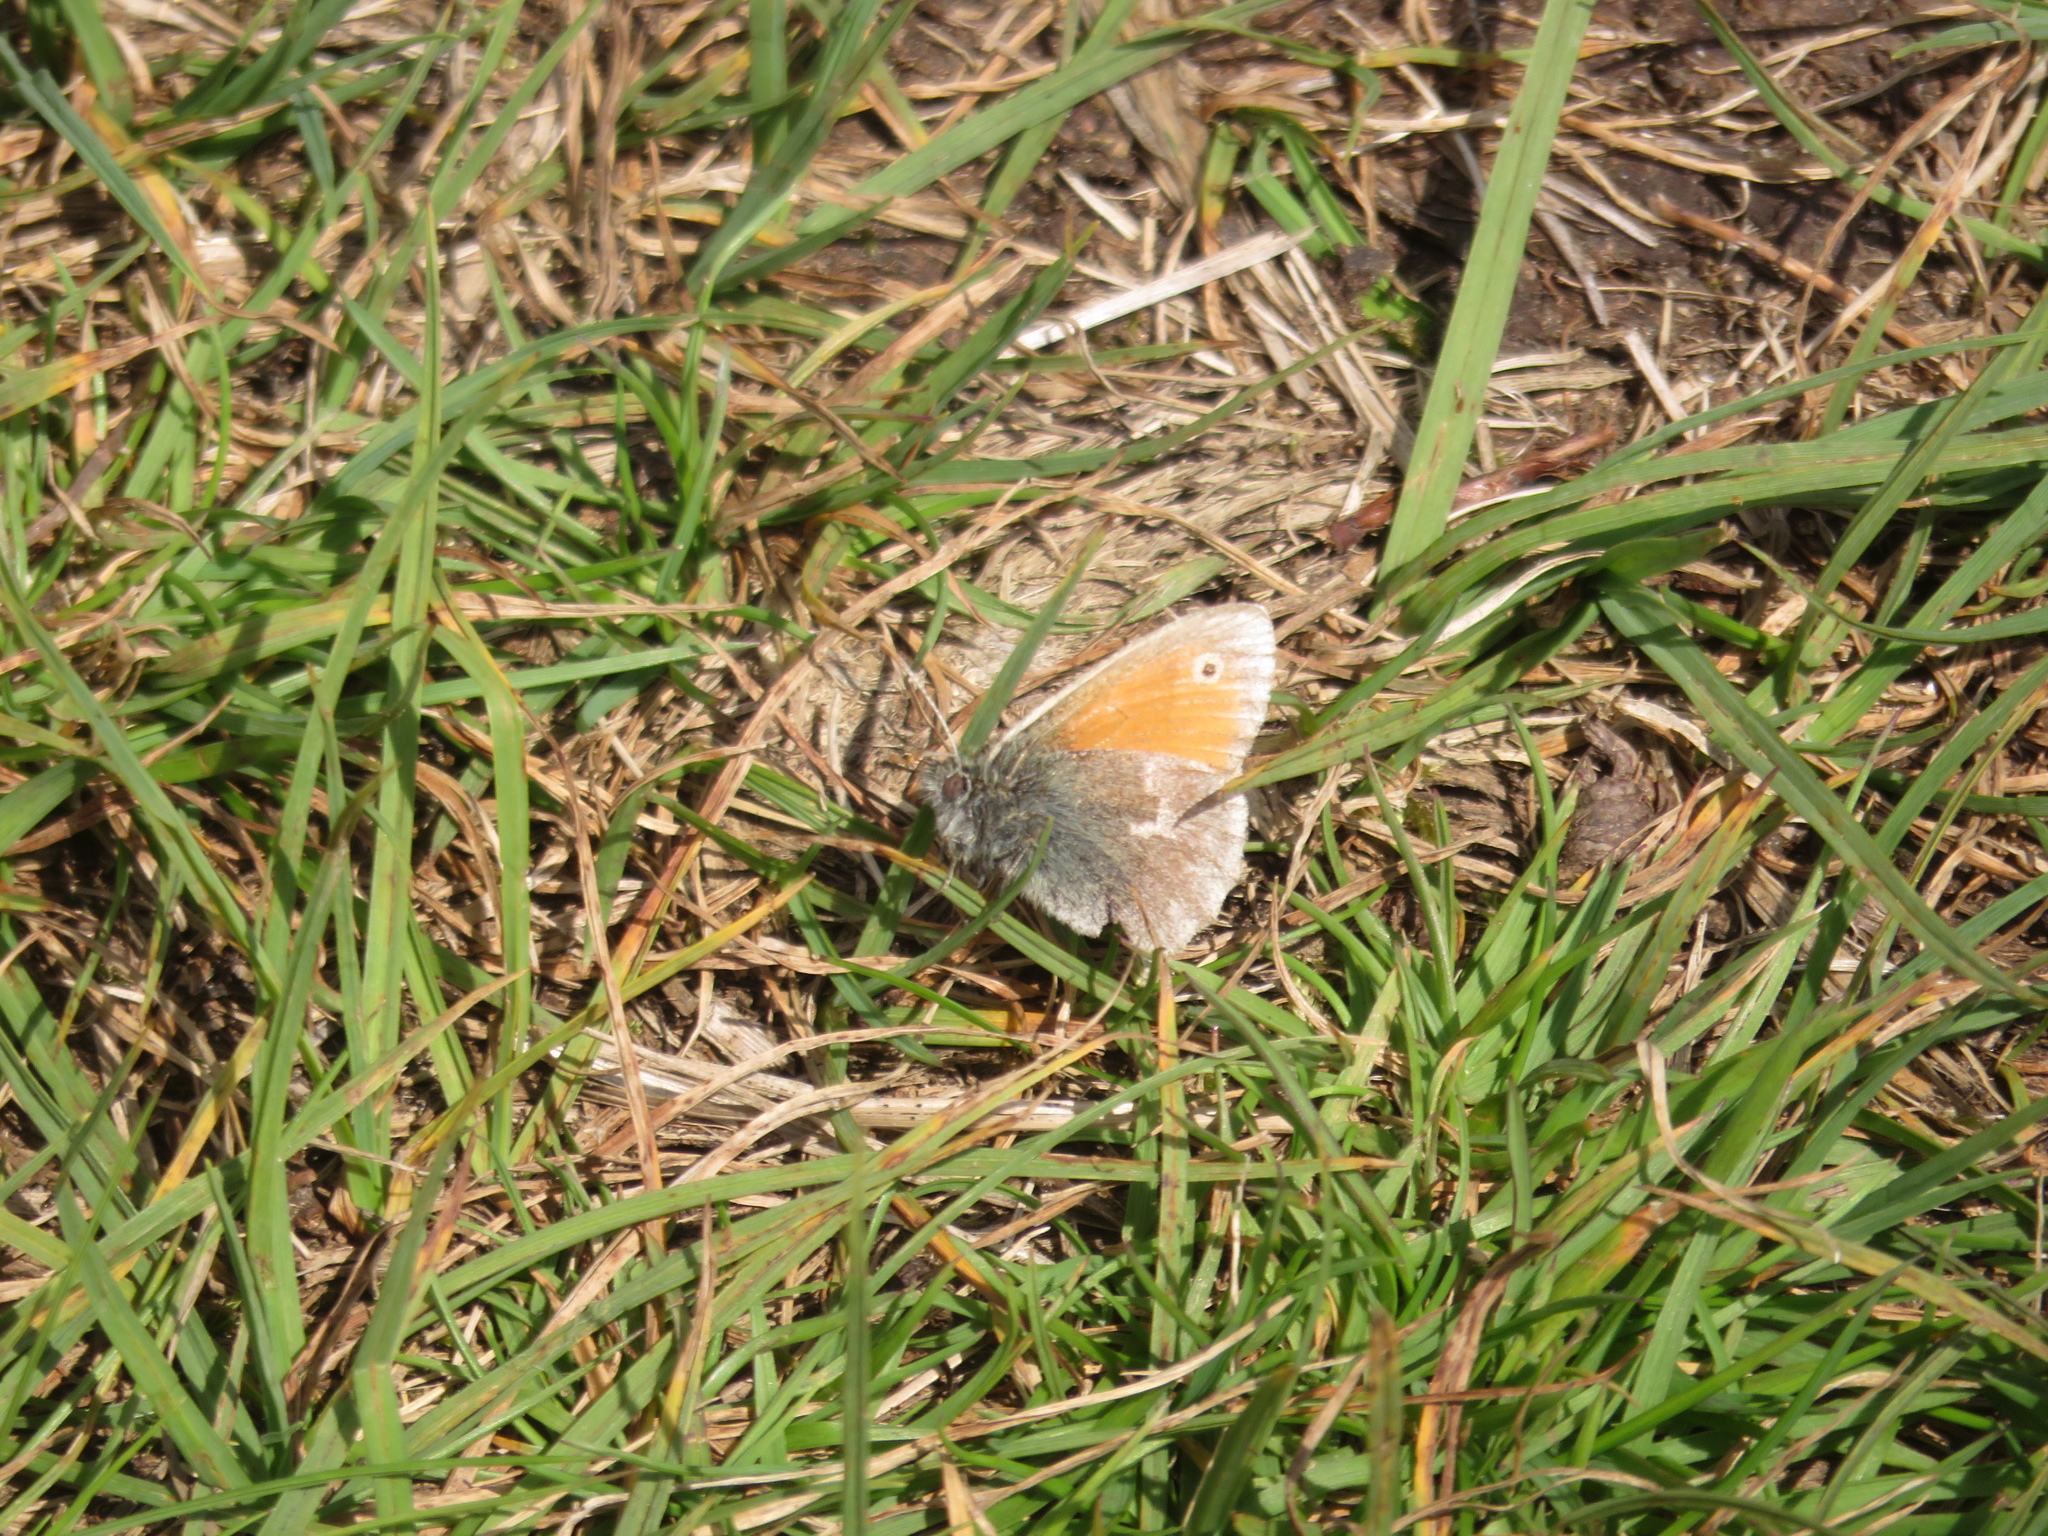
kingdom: Animalia
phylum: Arthropoda
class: Insecta
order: Lepidoptera
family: Nymphalidae
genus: Coenonympha
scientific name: Coenonympha pamphilus
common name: Small heath
